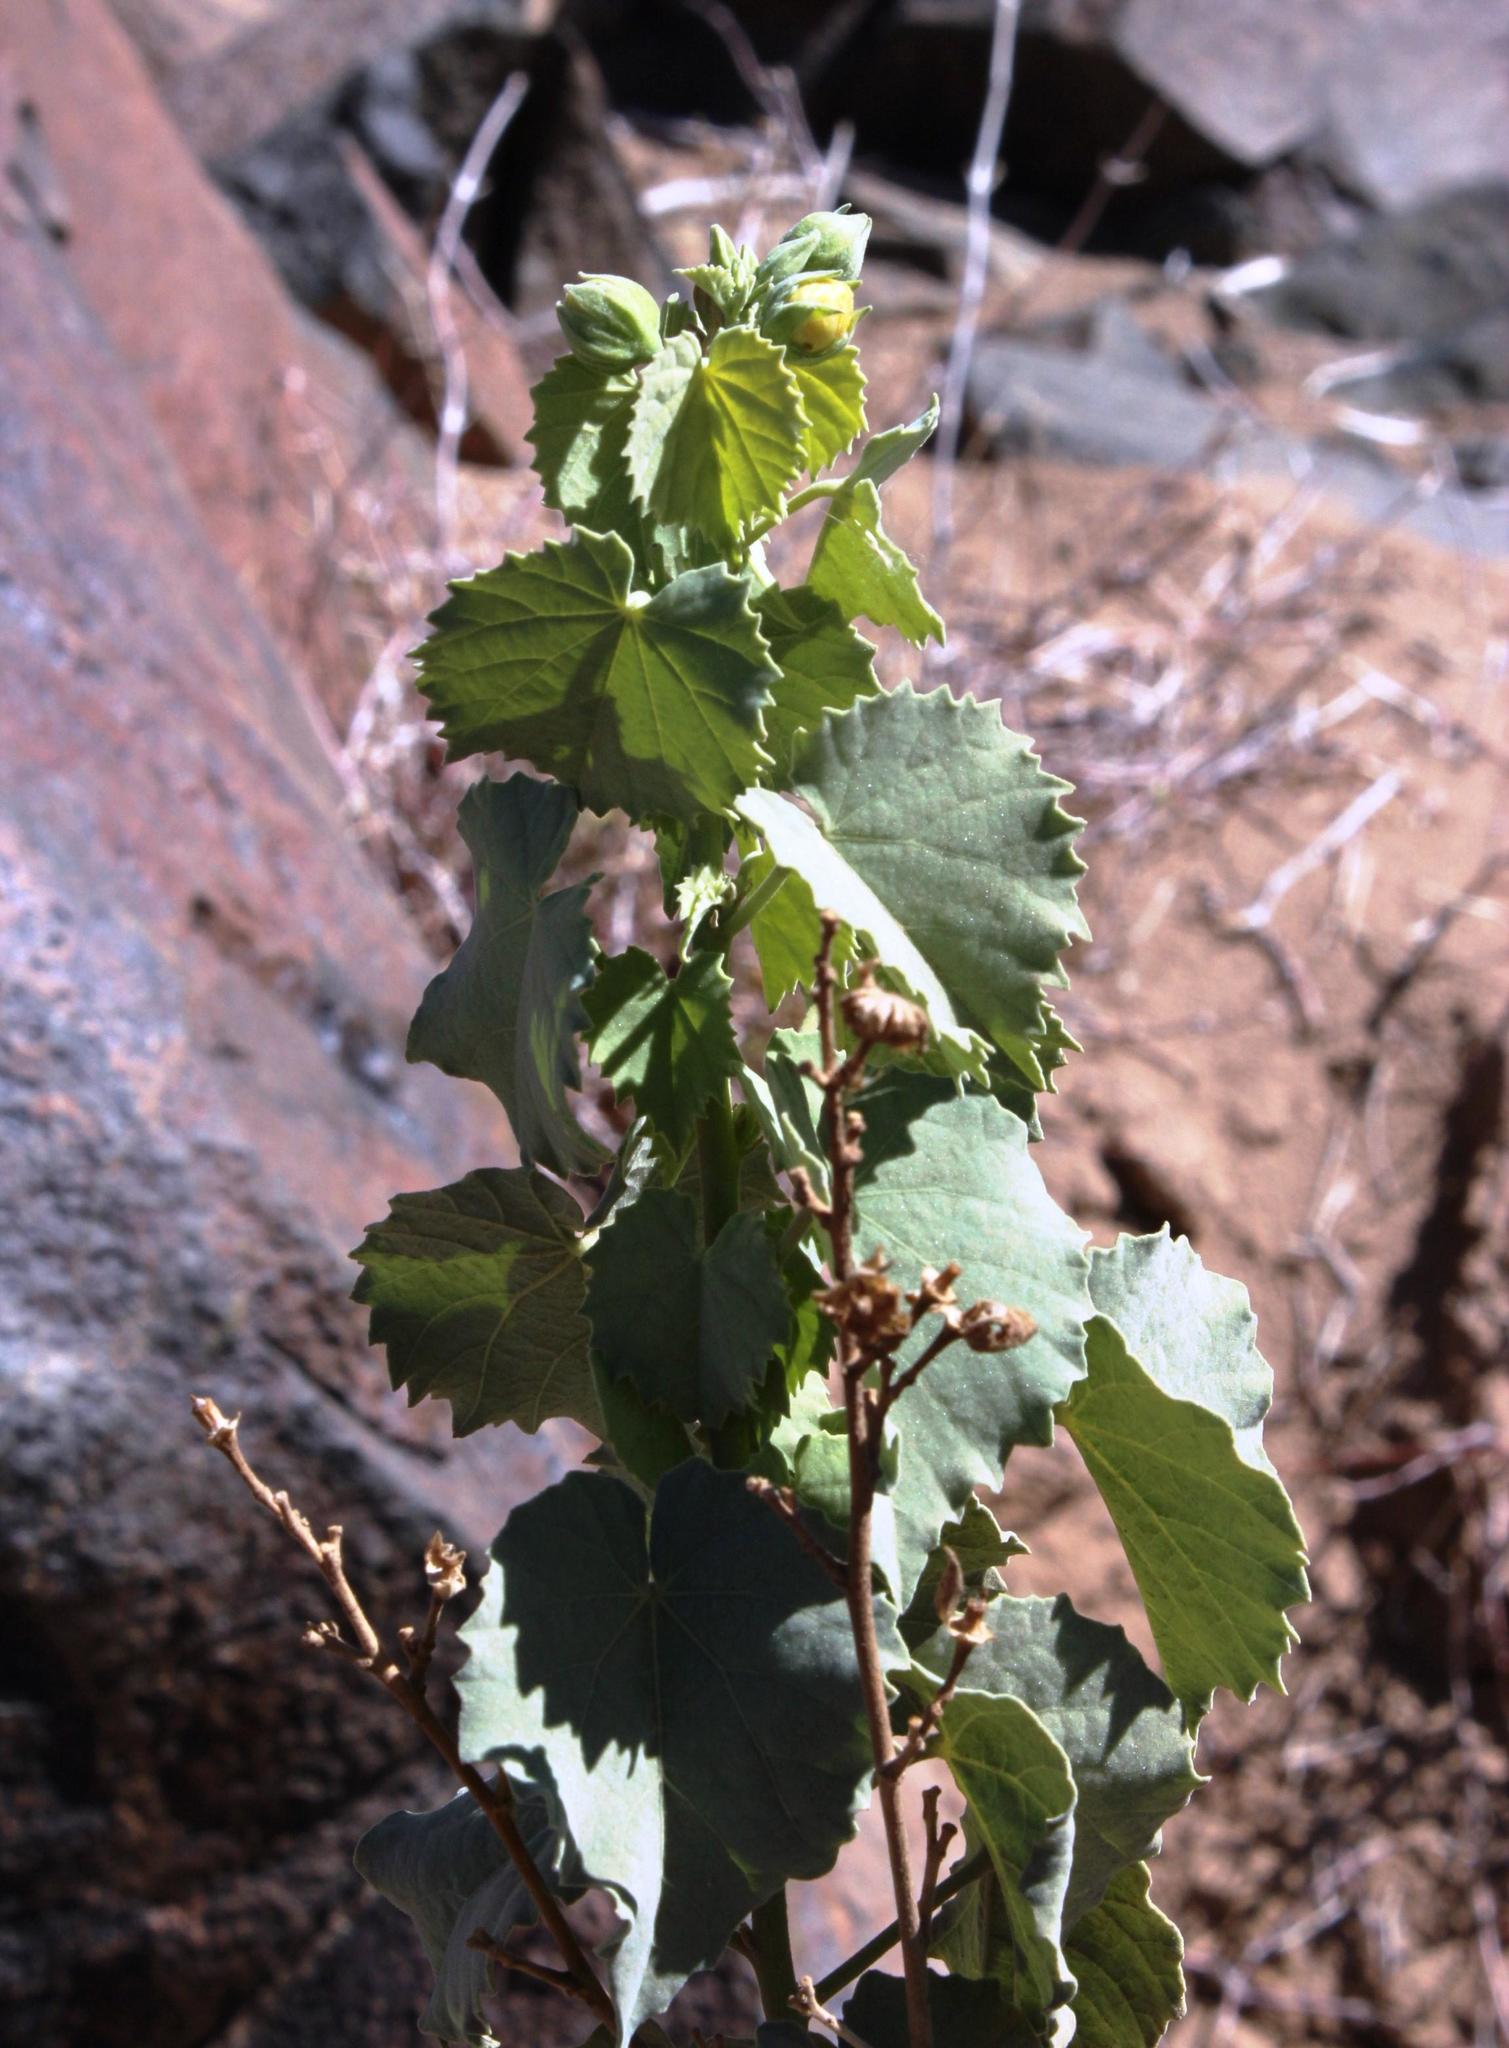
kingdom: Plantae
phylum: Tracheophyta
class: Magnoliopsida
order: Malvales
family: Malvaceae
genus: Abutilon
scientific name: Abutilon pycnodon
